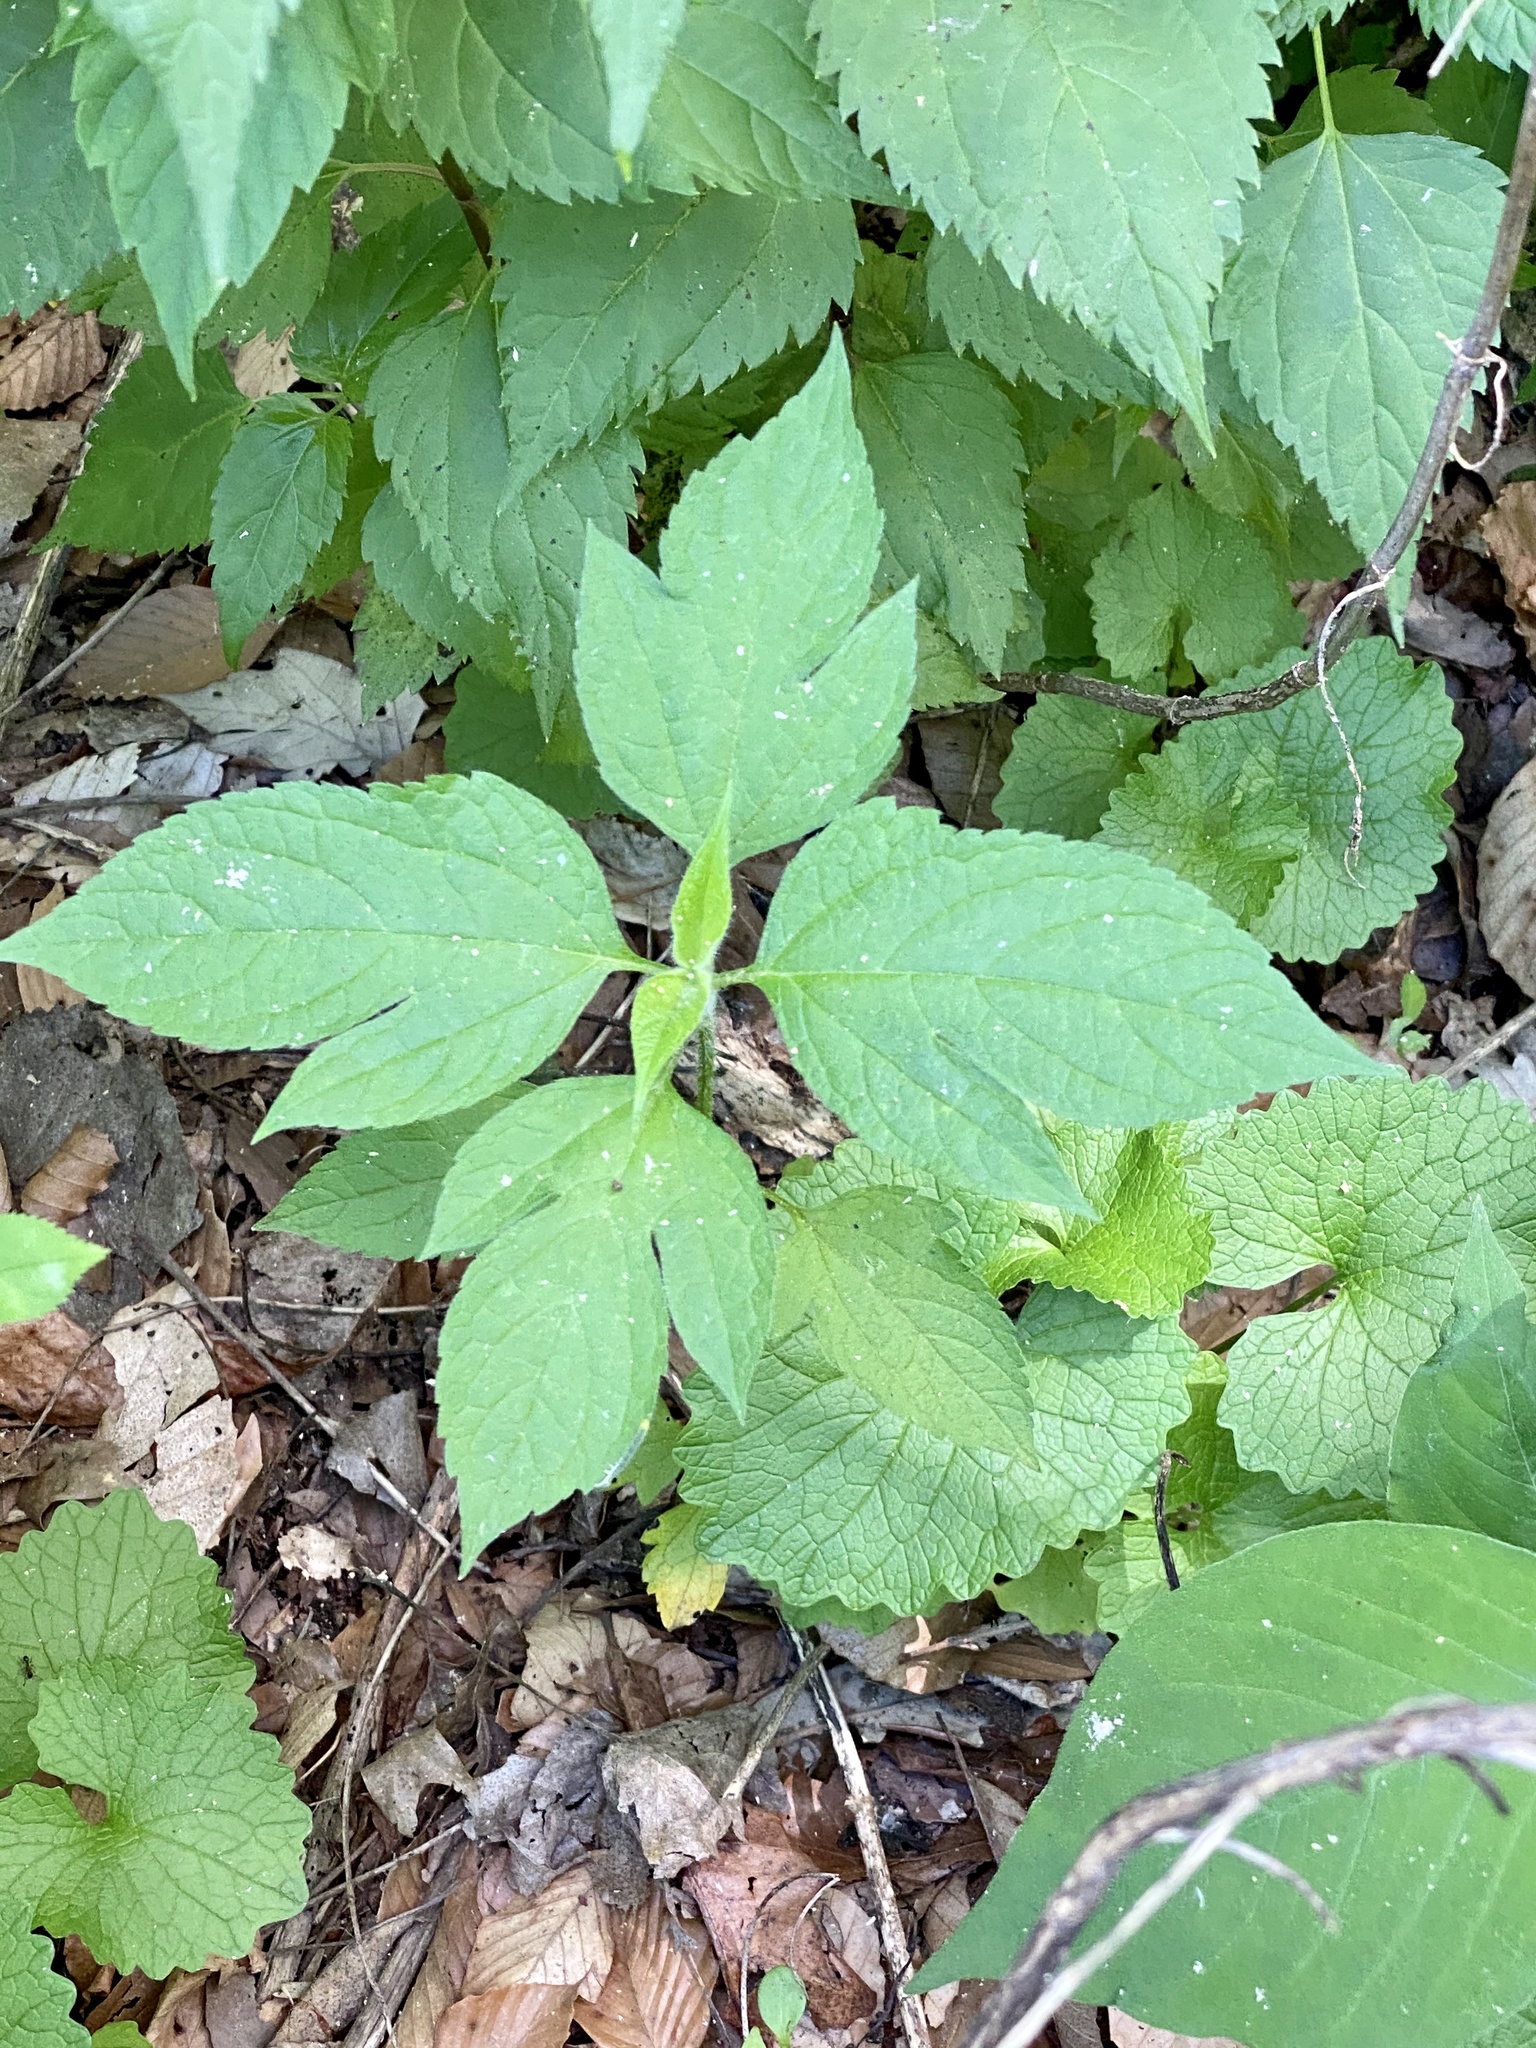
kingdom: Plantae
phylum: Tracheophyta
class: Magnoliopsida
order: Asterales
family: Asteraceae
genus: Ambrosia
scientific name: Ambrosia trifida
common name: Giant ragweed
